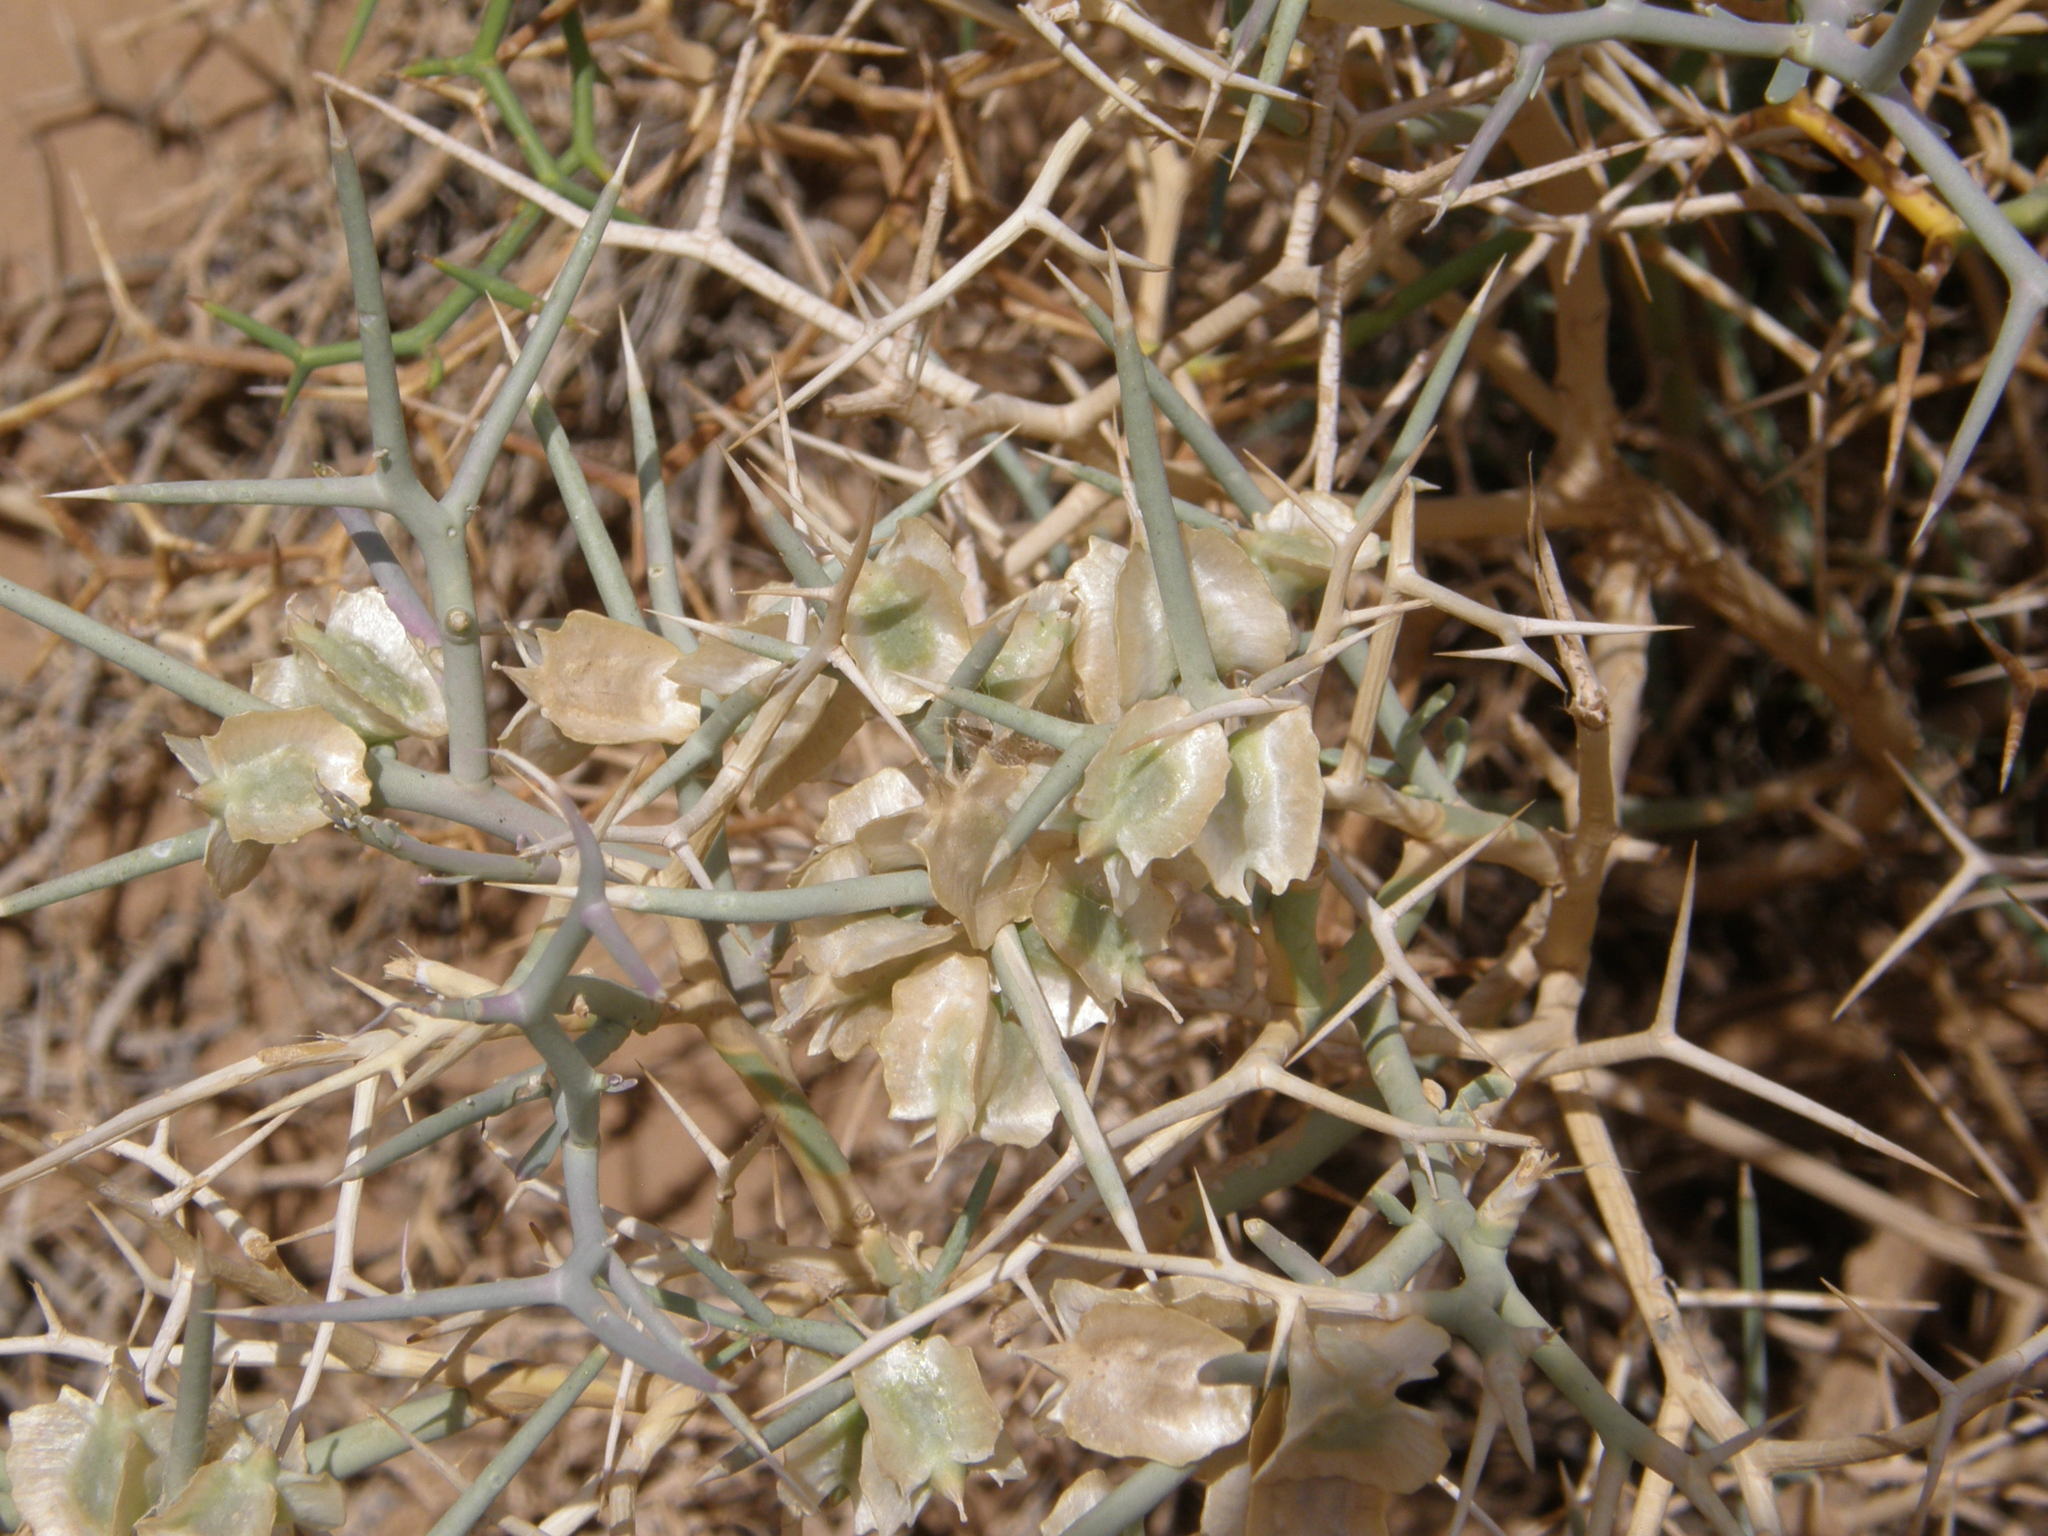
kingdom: Plantae
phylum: Tracheophyta
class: Magnoliopsida
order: Brassicales
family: Brassicaceae
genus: Zilla
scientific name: Zilla macroptera
